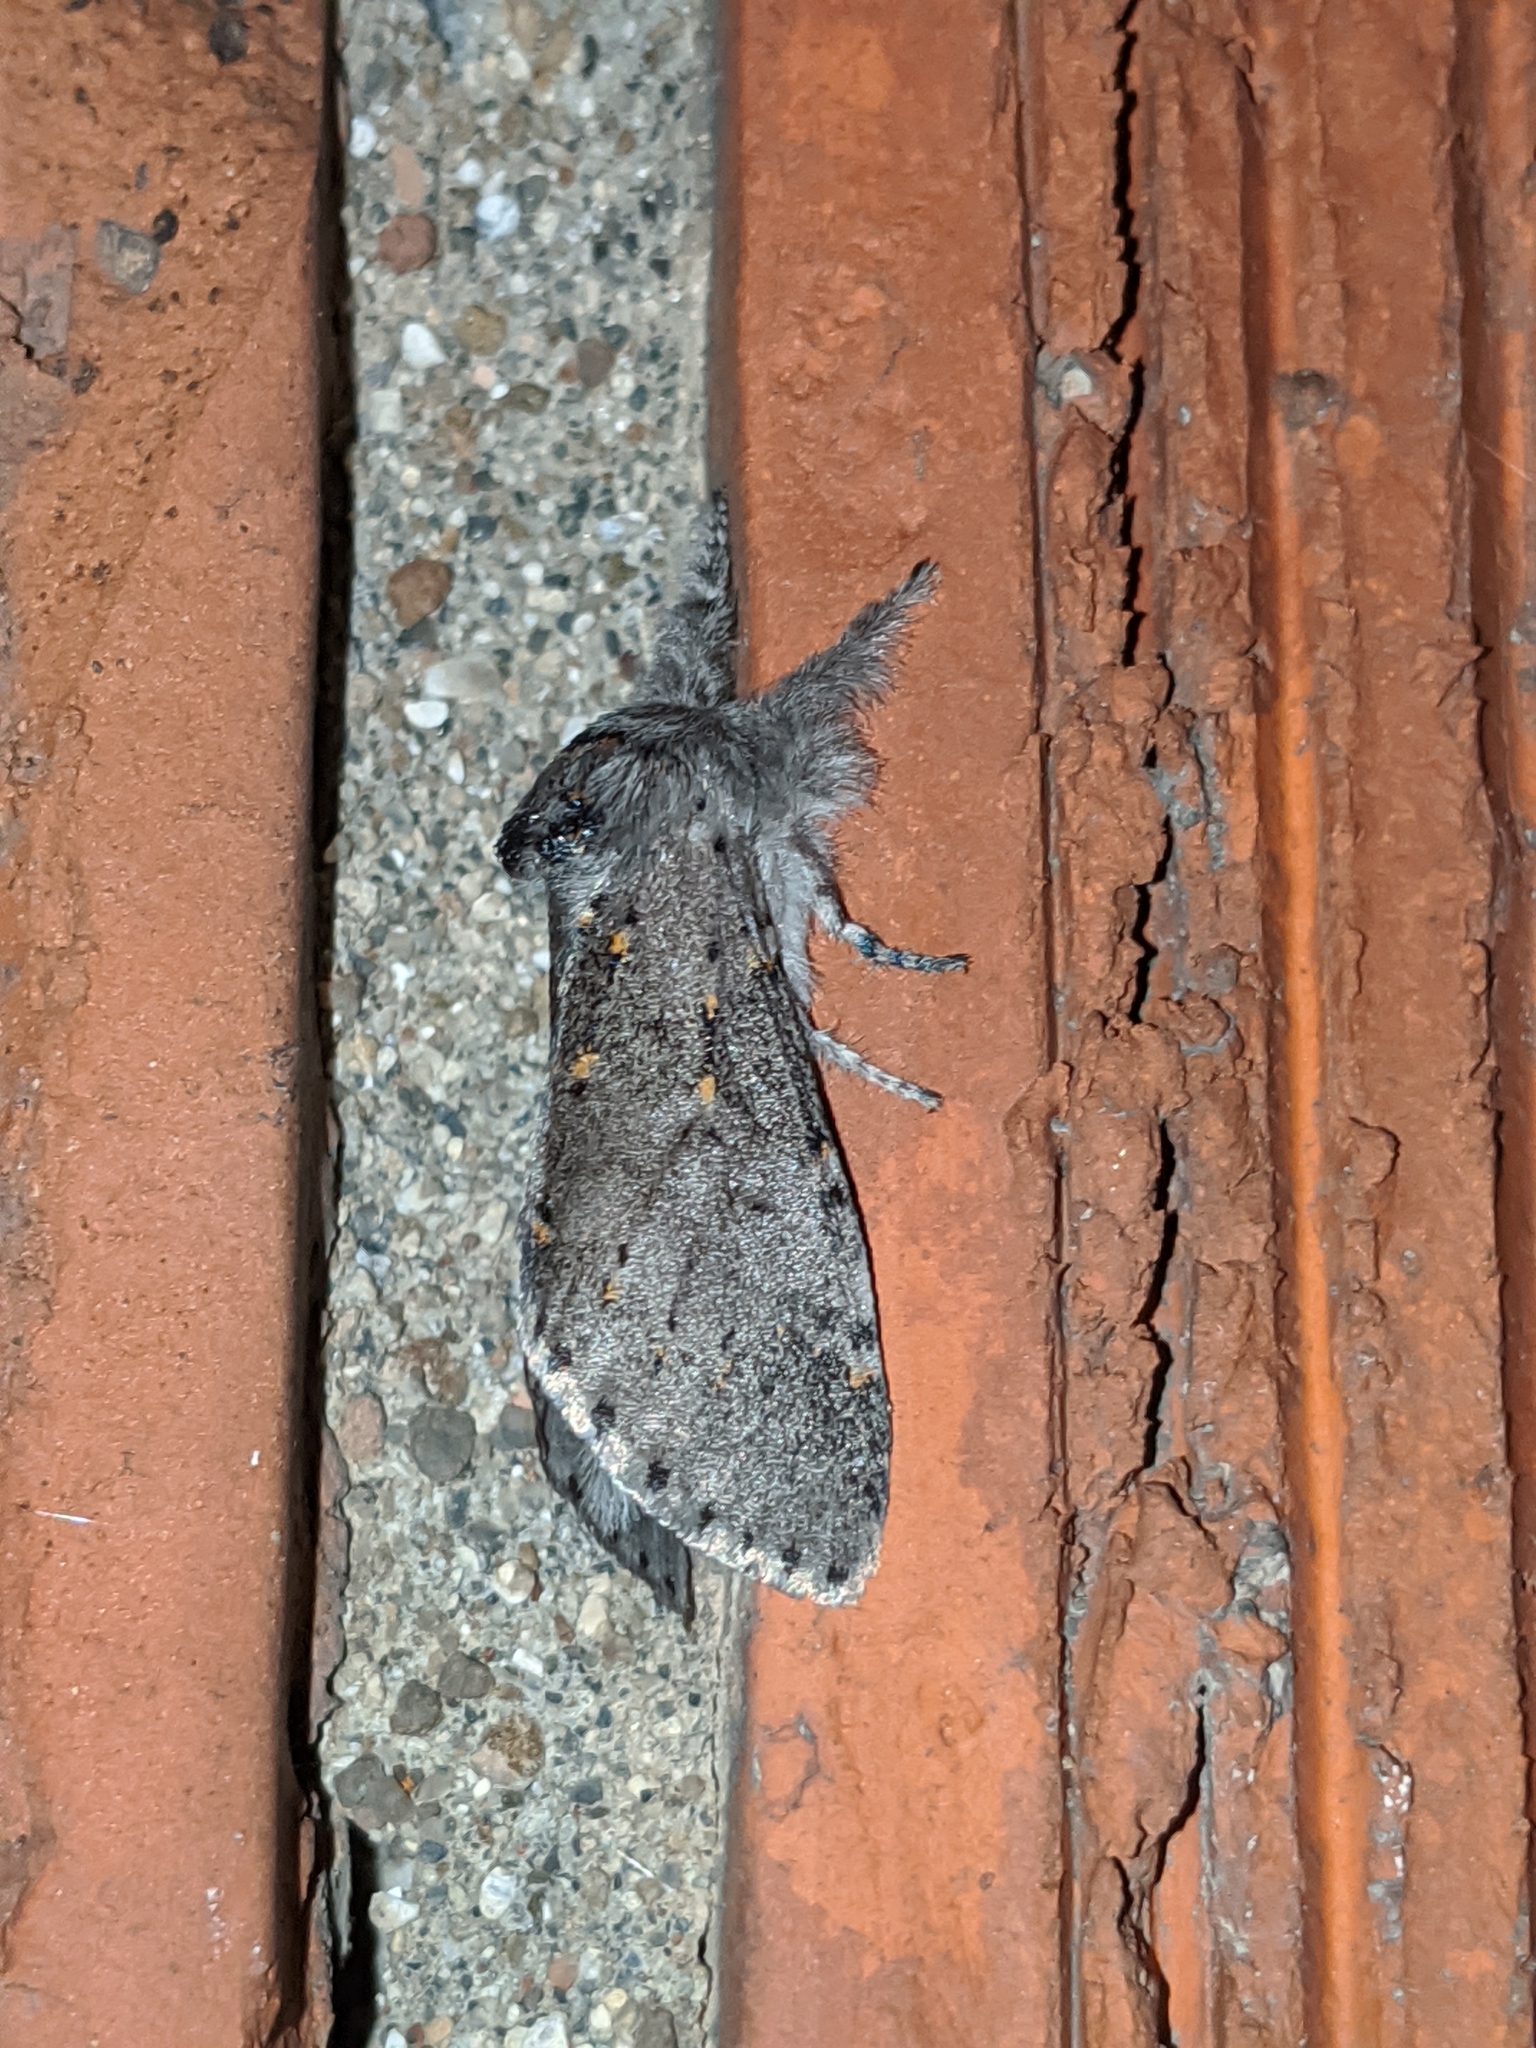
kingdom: Animalia
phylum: Arthropoda
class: Insecta
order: Lepidoptera
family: Notodontidae
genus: Furcula
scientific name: Furcula cinerea
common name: Gray furcula
